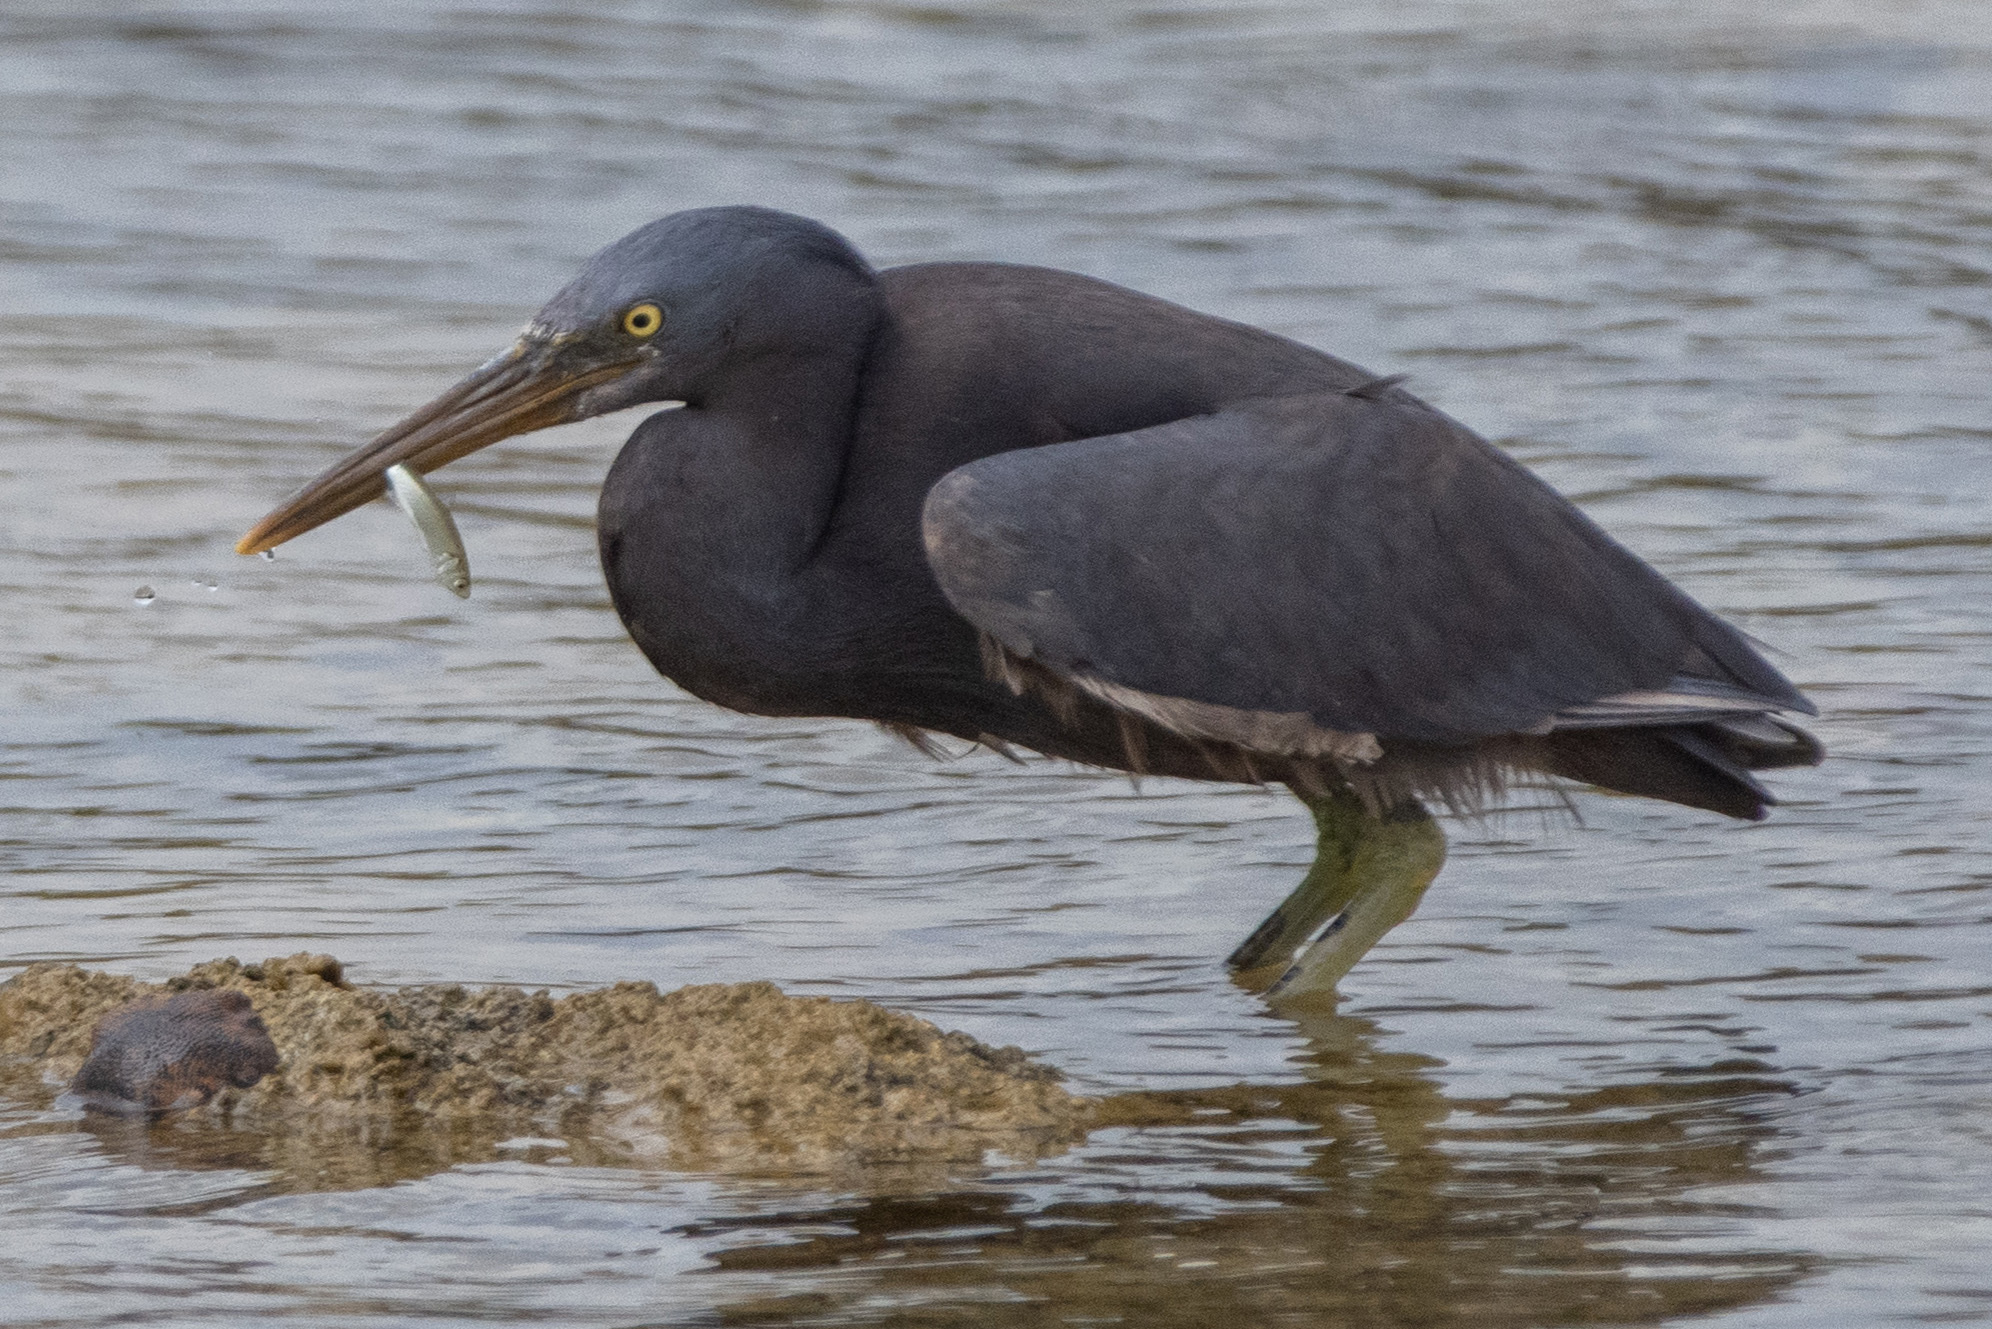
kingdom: Animalia
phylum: Chordata
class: Aves
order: Pelecaniformes
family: Ardeidae
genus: Egretta
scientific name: Egretta sacra
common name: Pacific reef heron
